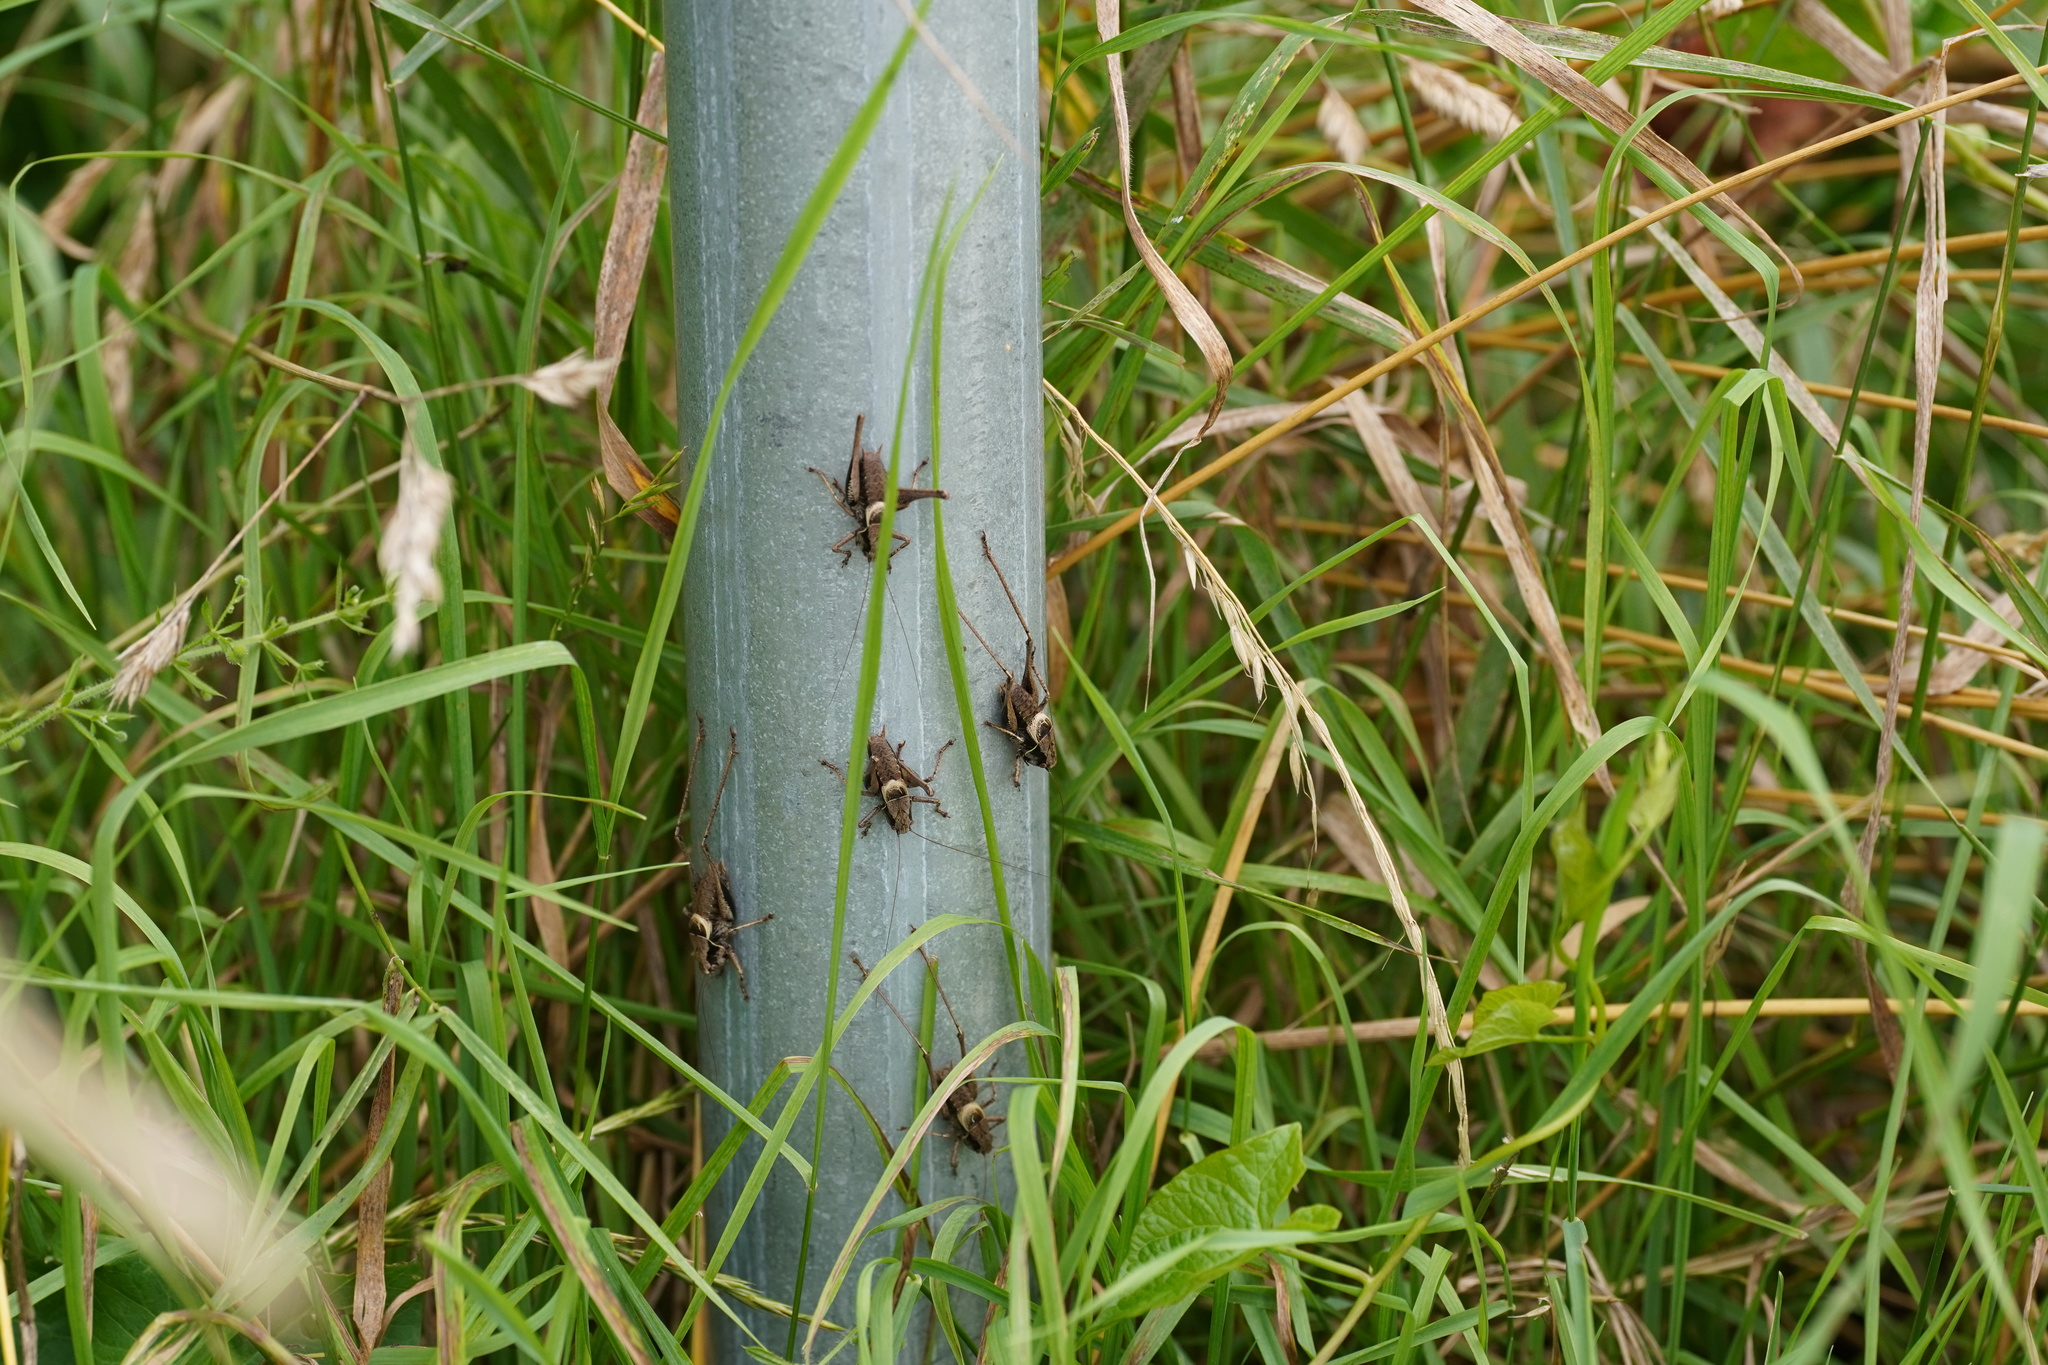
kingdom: Animalia
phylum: Arthropoda
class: Insecta
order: Orthoptera
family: Tettigoniidae
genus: Pholidoptera
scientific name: Pholidoptera griseoaptera
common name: Dark bush-cricket
